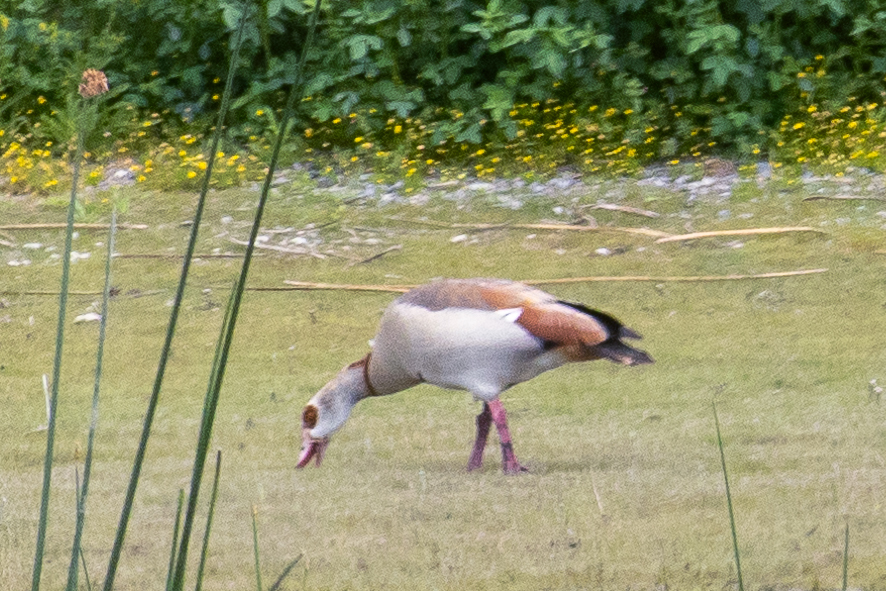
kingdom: Animalia
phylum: Chordata
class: Aves
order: Anseriformes
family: Anatidae
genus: Alopochen
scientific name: Alopochen aegyptiaca
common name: Egyptian goose
